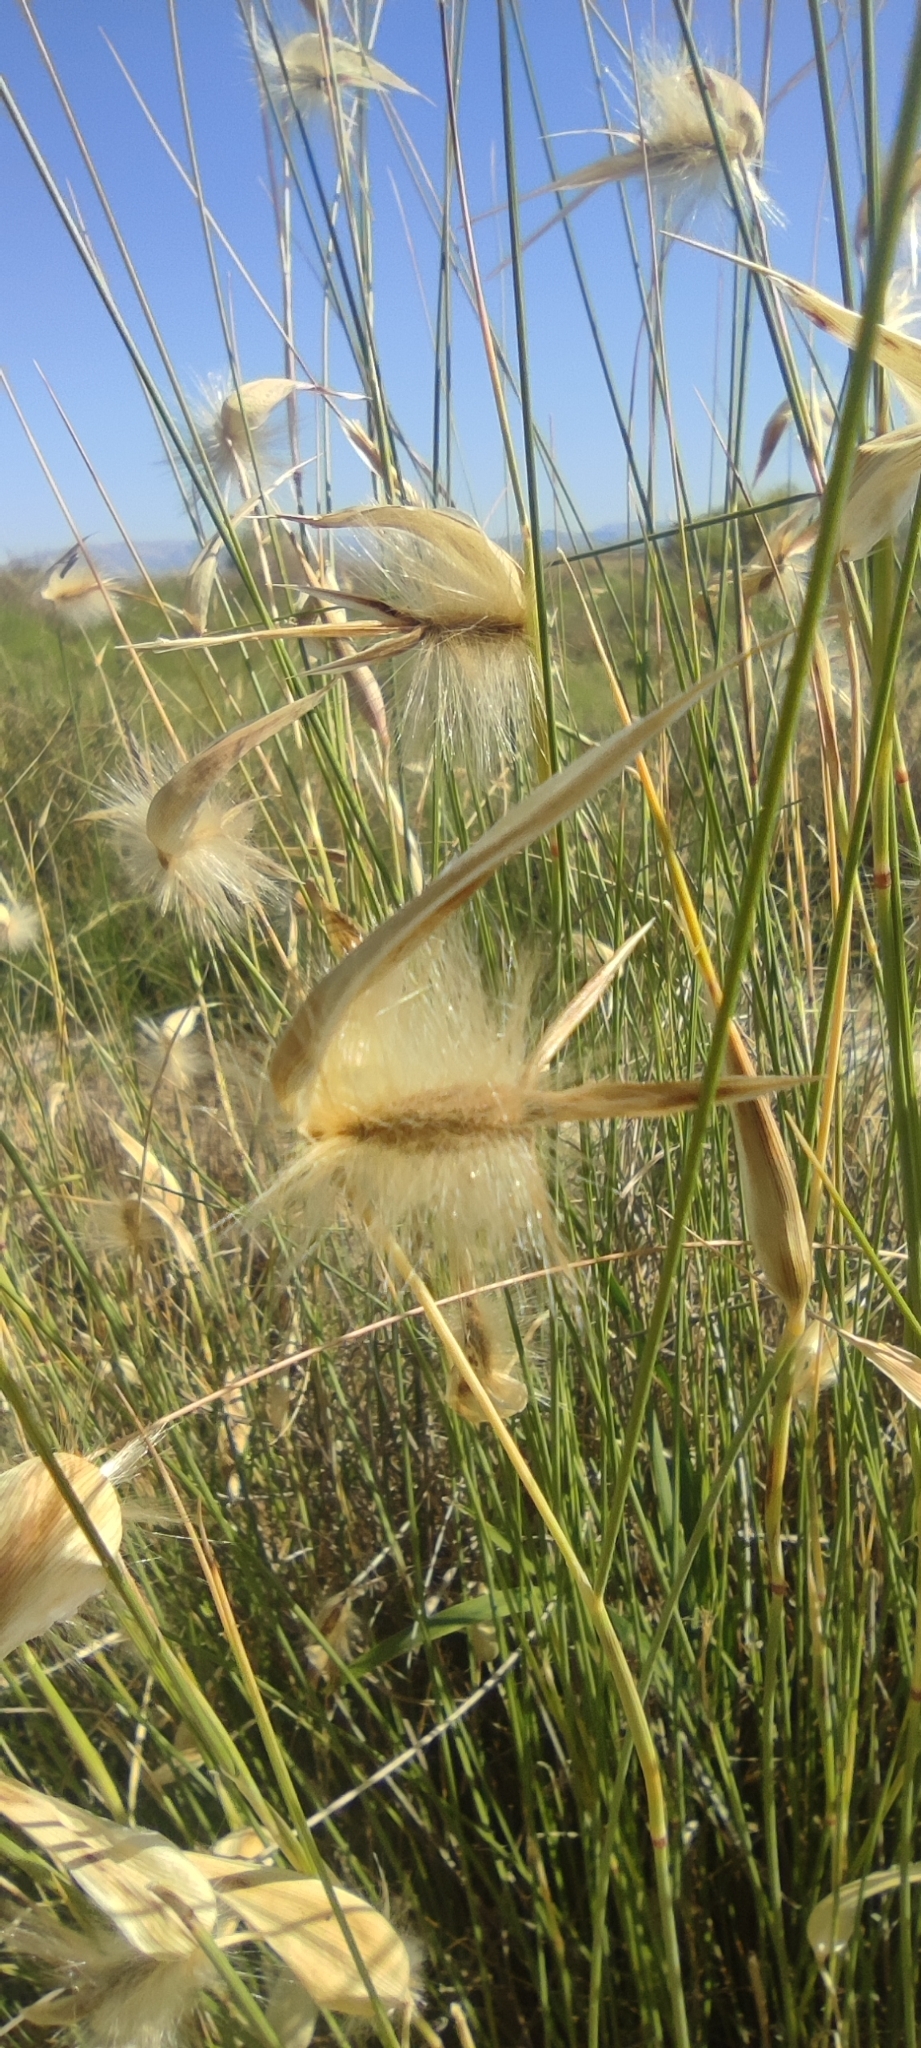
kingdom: Plantae
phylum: Tracheophyta
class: Liliopsida
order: Poales
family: Poaceae
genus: Lygeum
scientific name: Lygeum spartum
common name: Albardine
